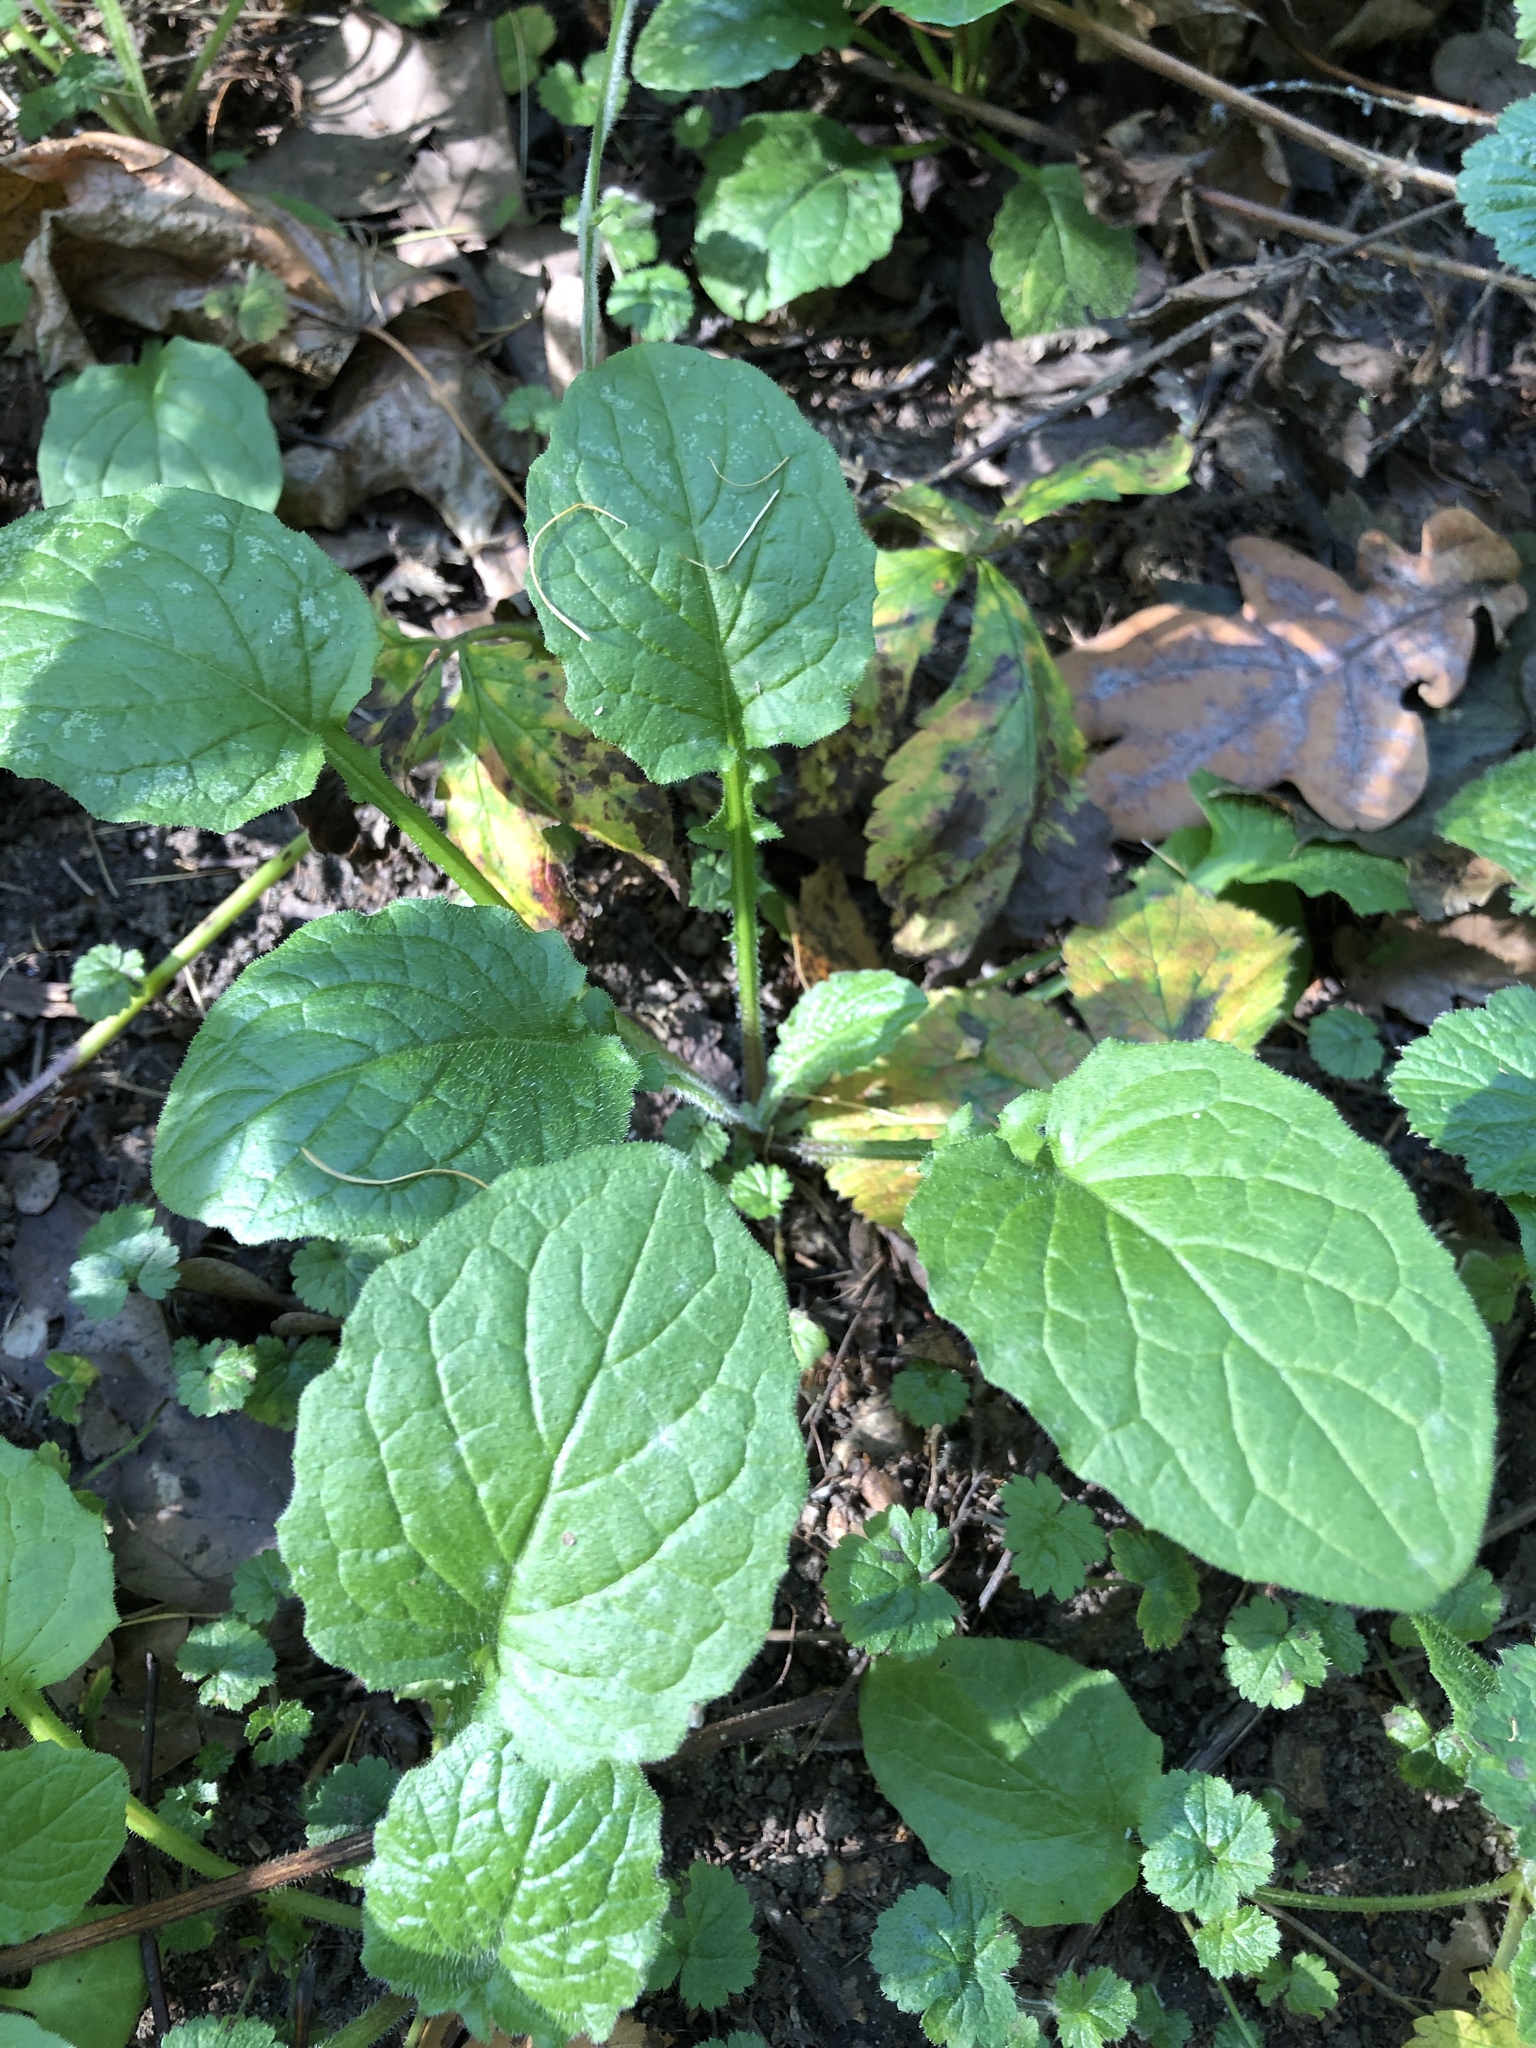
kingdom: Plantae
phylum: Tracheophyta
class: Magnoliopsida
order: Asterales
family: Asteraceae
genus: Lapsana
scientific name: Lapsana communis
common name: Nipplewort
